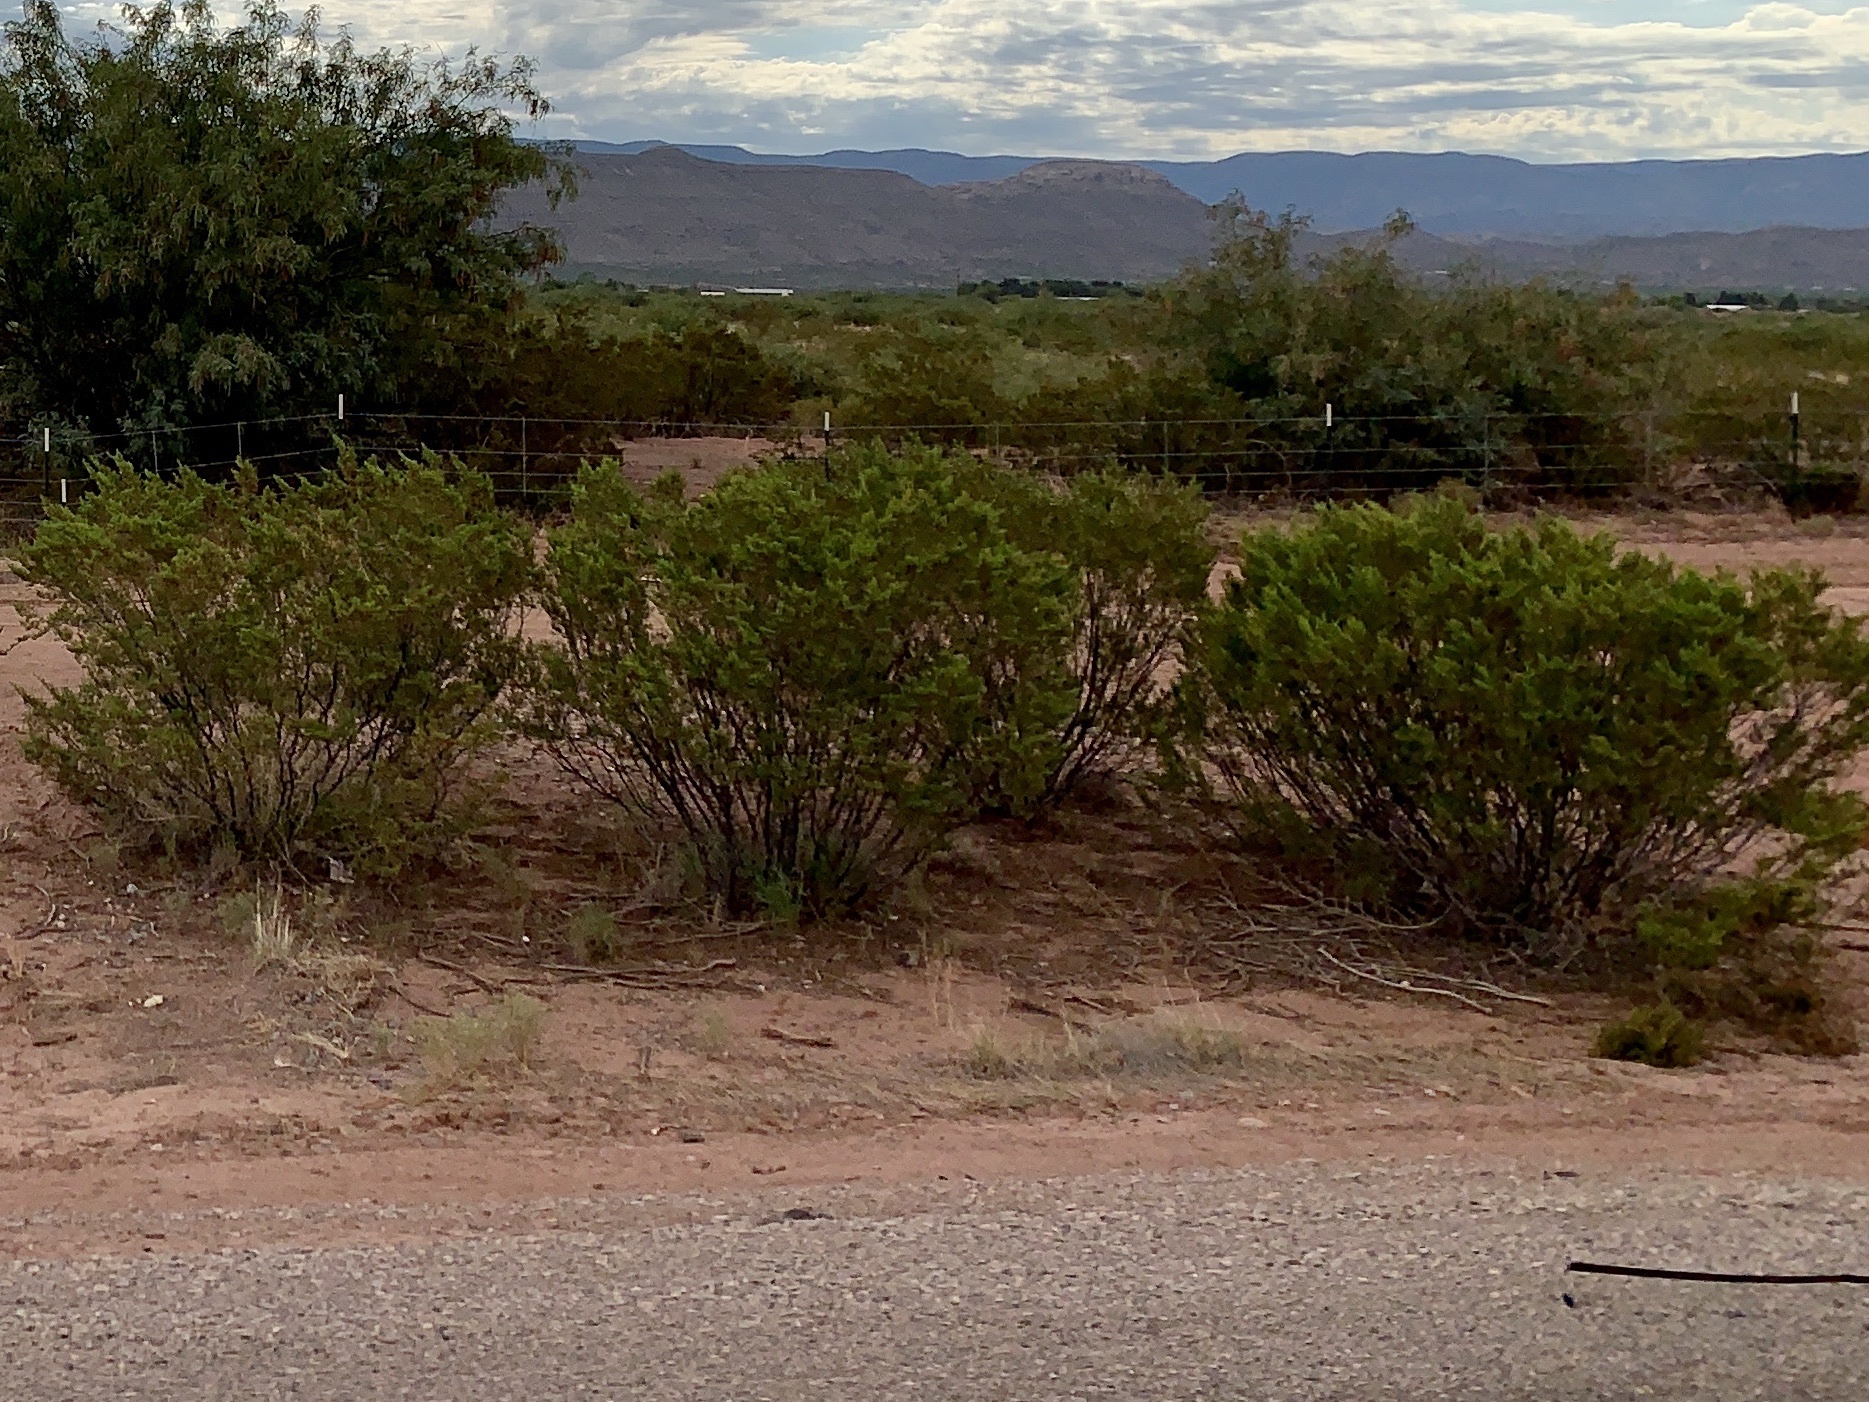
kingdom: Plantae
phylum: Tracheophyta
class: Magnoliopsida
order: Zygophyllales
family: Zygophyllaceae
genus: Larrea
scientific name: Larrea tridentata
